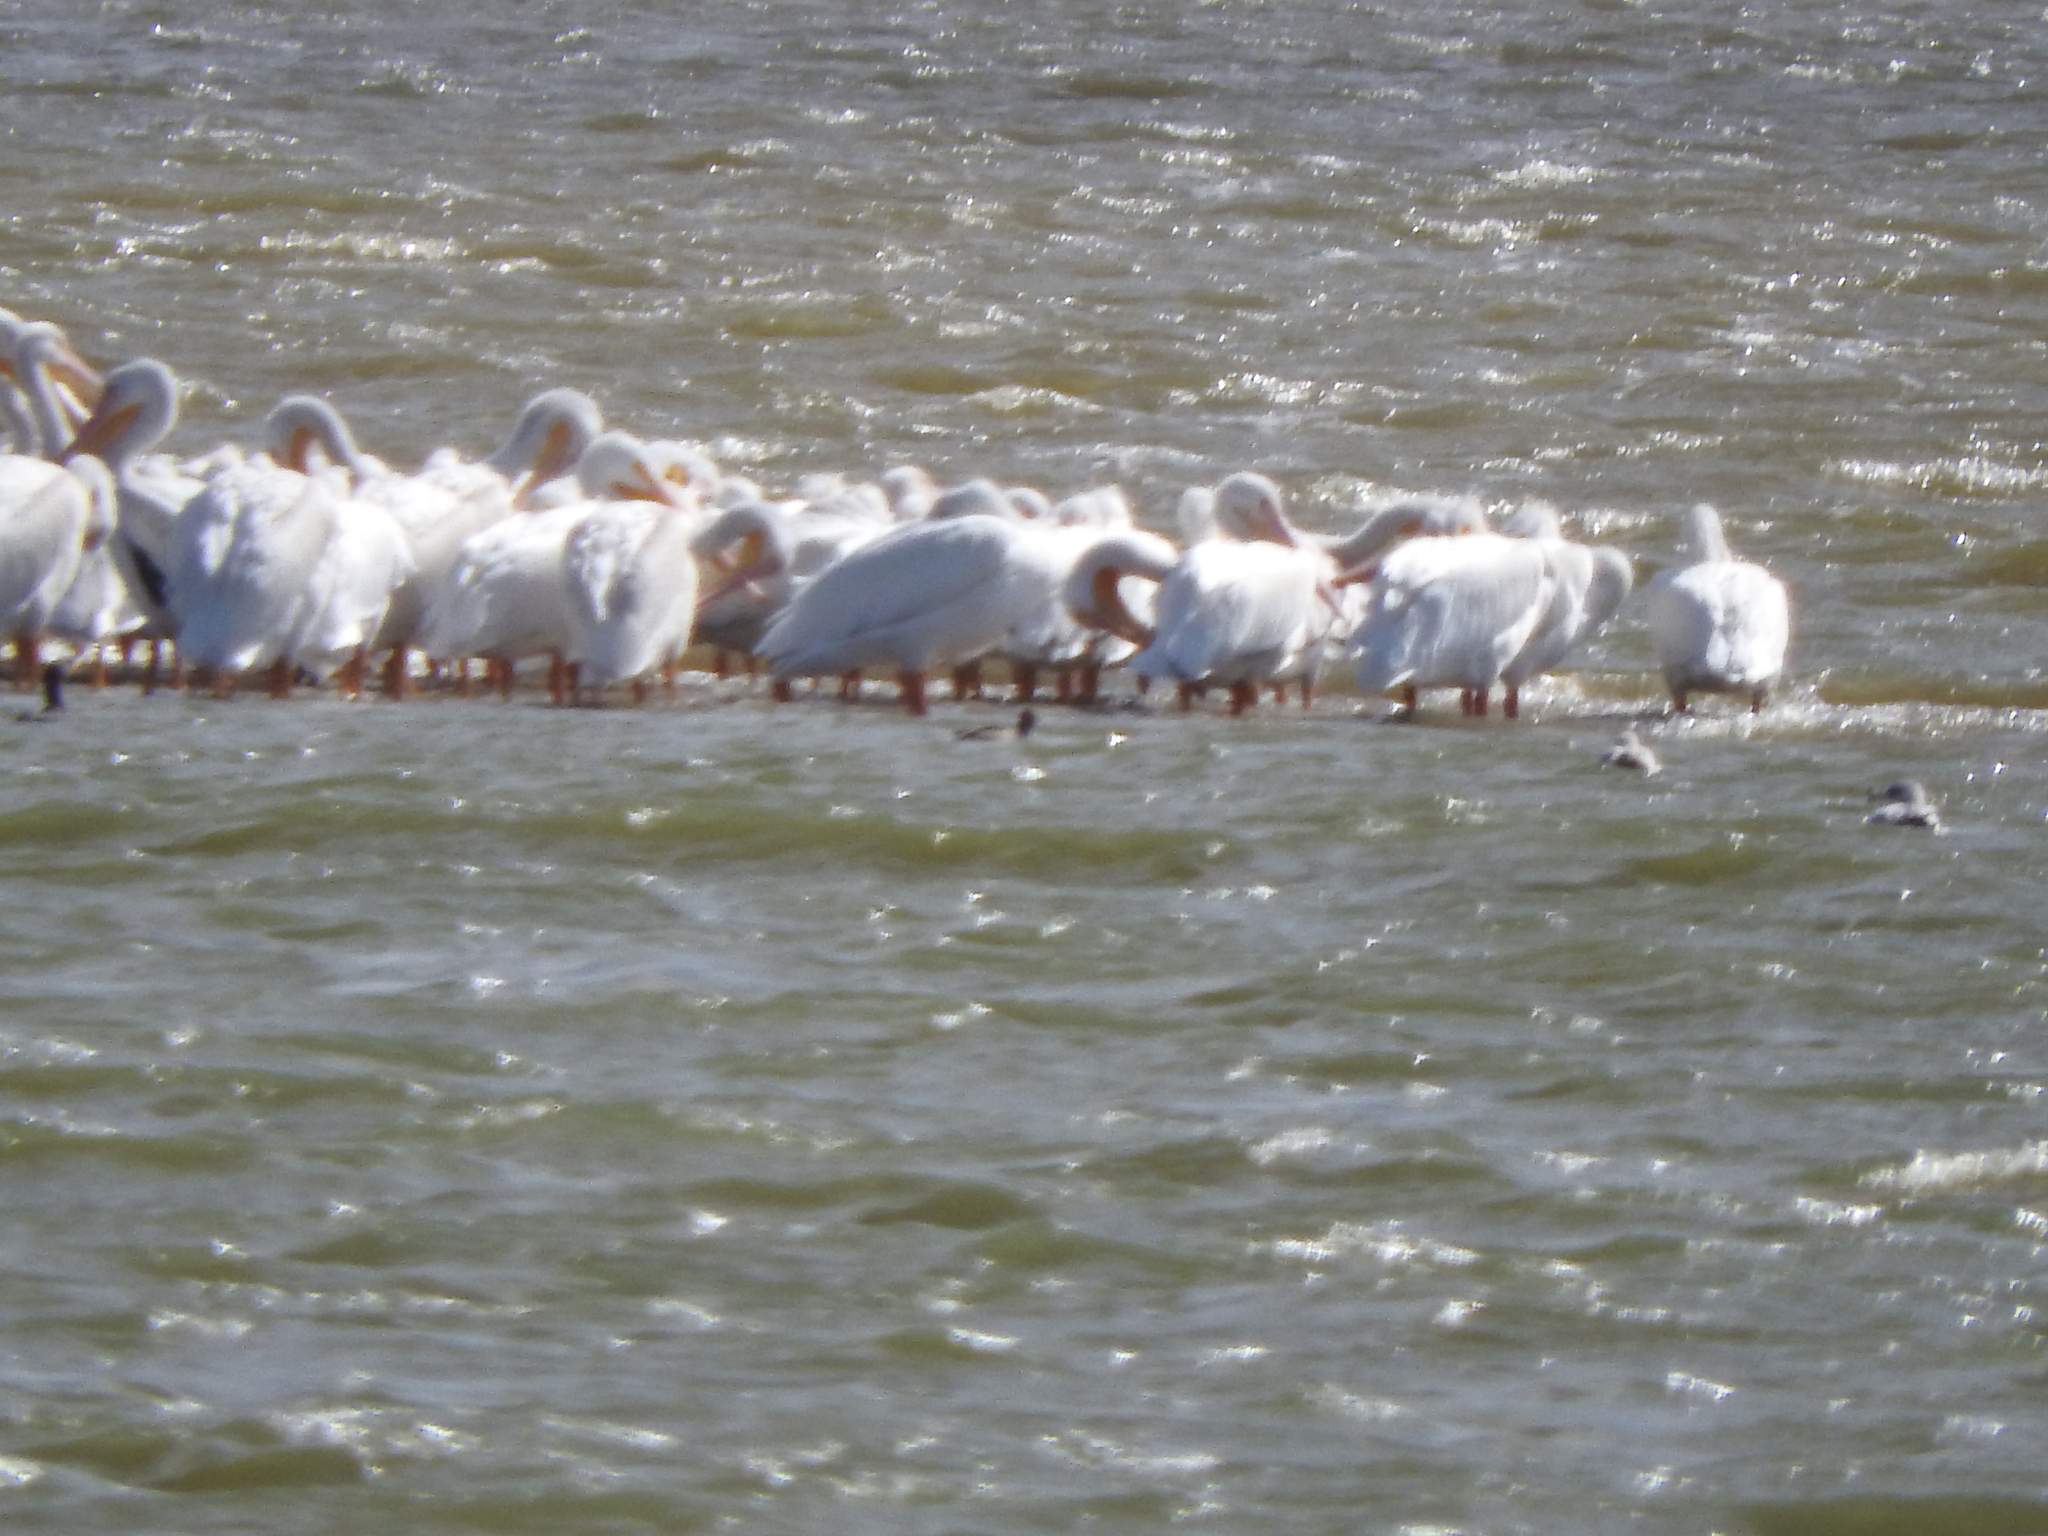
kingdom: Animalia
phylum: Chordata
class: Aves
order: Pelecaniformes
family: Pelecanidae
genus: Pelecanus
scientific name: Pelecanus erythrorhynchos
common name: American white pelican
